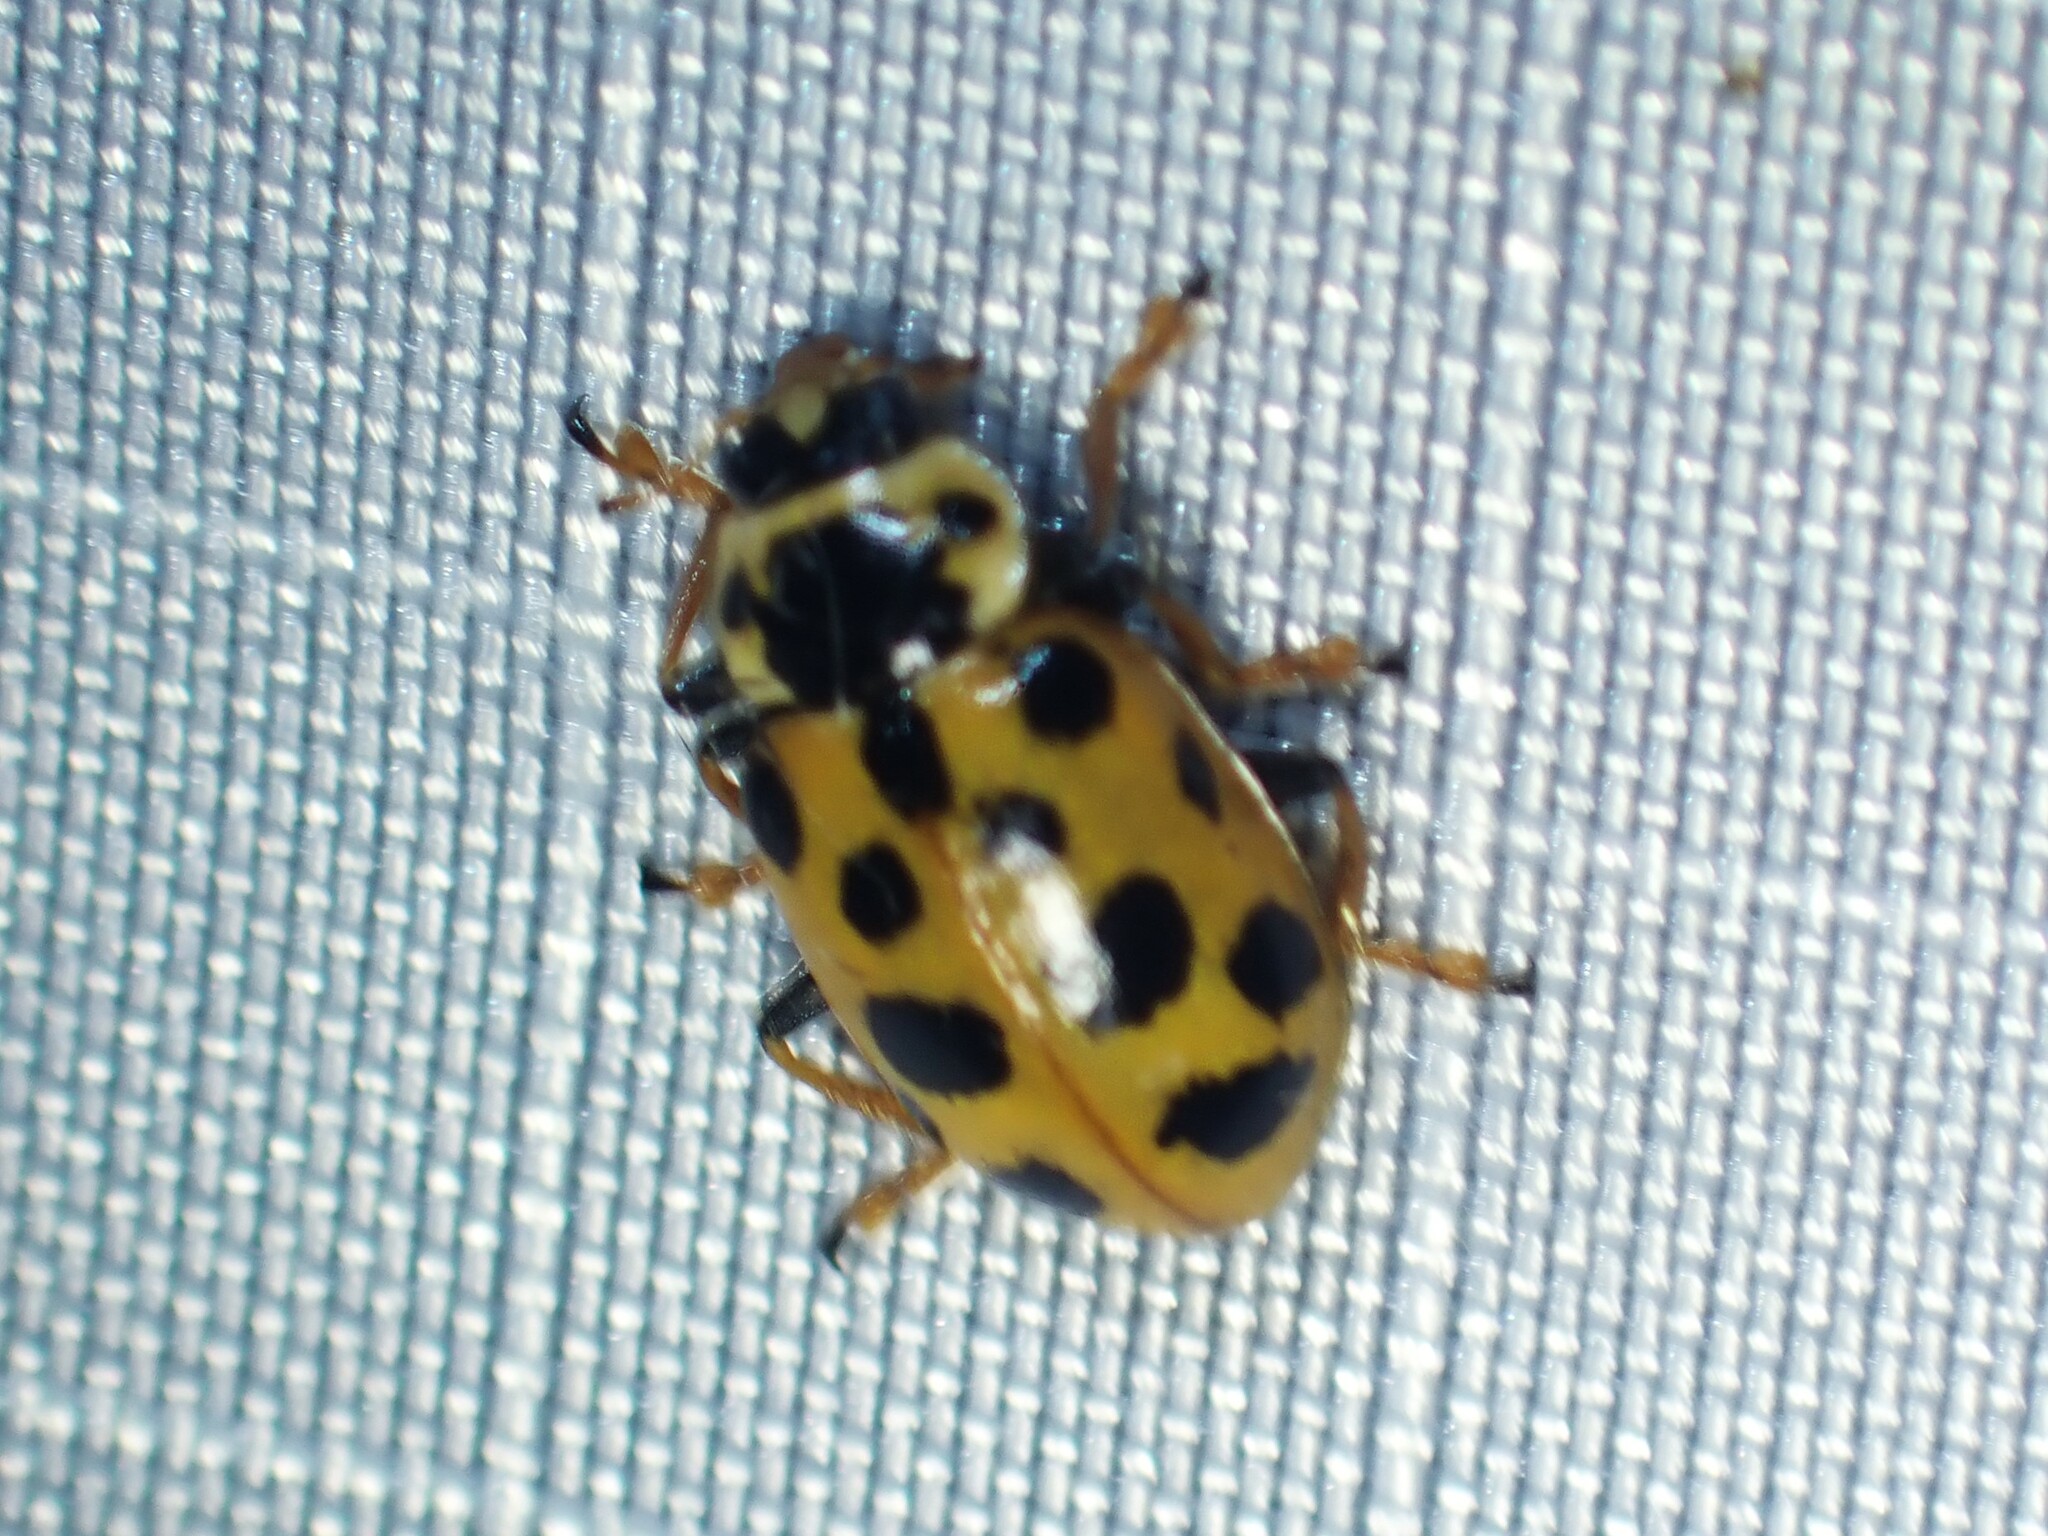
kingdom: Animalia
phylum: Arthropoda
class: Insecta
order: Coleoptera
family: Coccinellidae
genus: Hippodamia
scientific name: Hippodamia tredecimpunctata
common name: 13-spot ladybird
